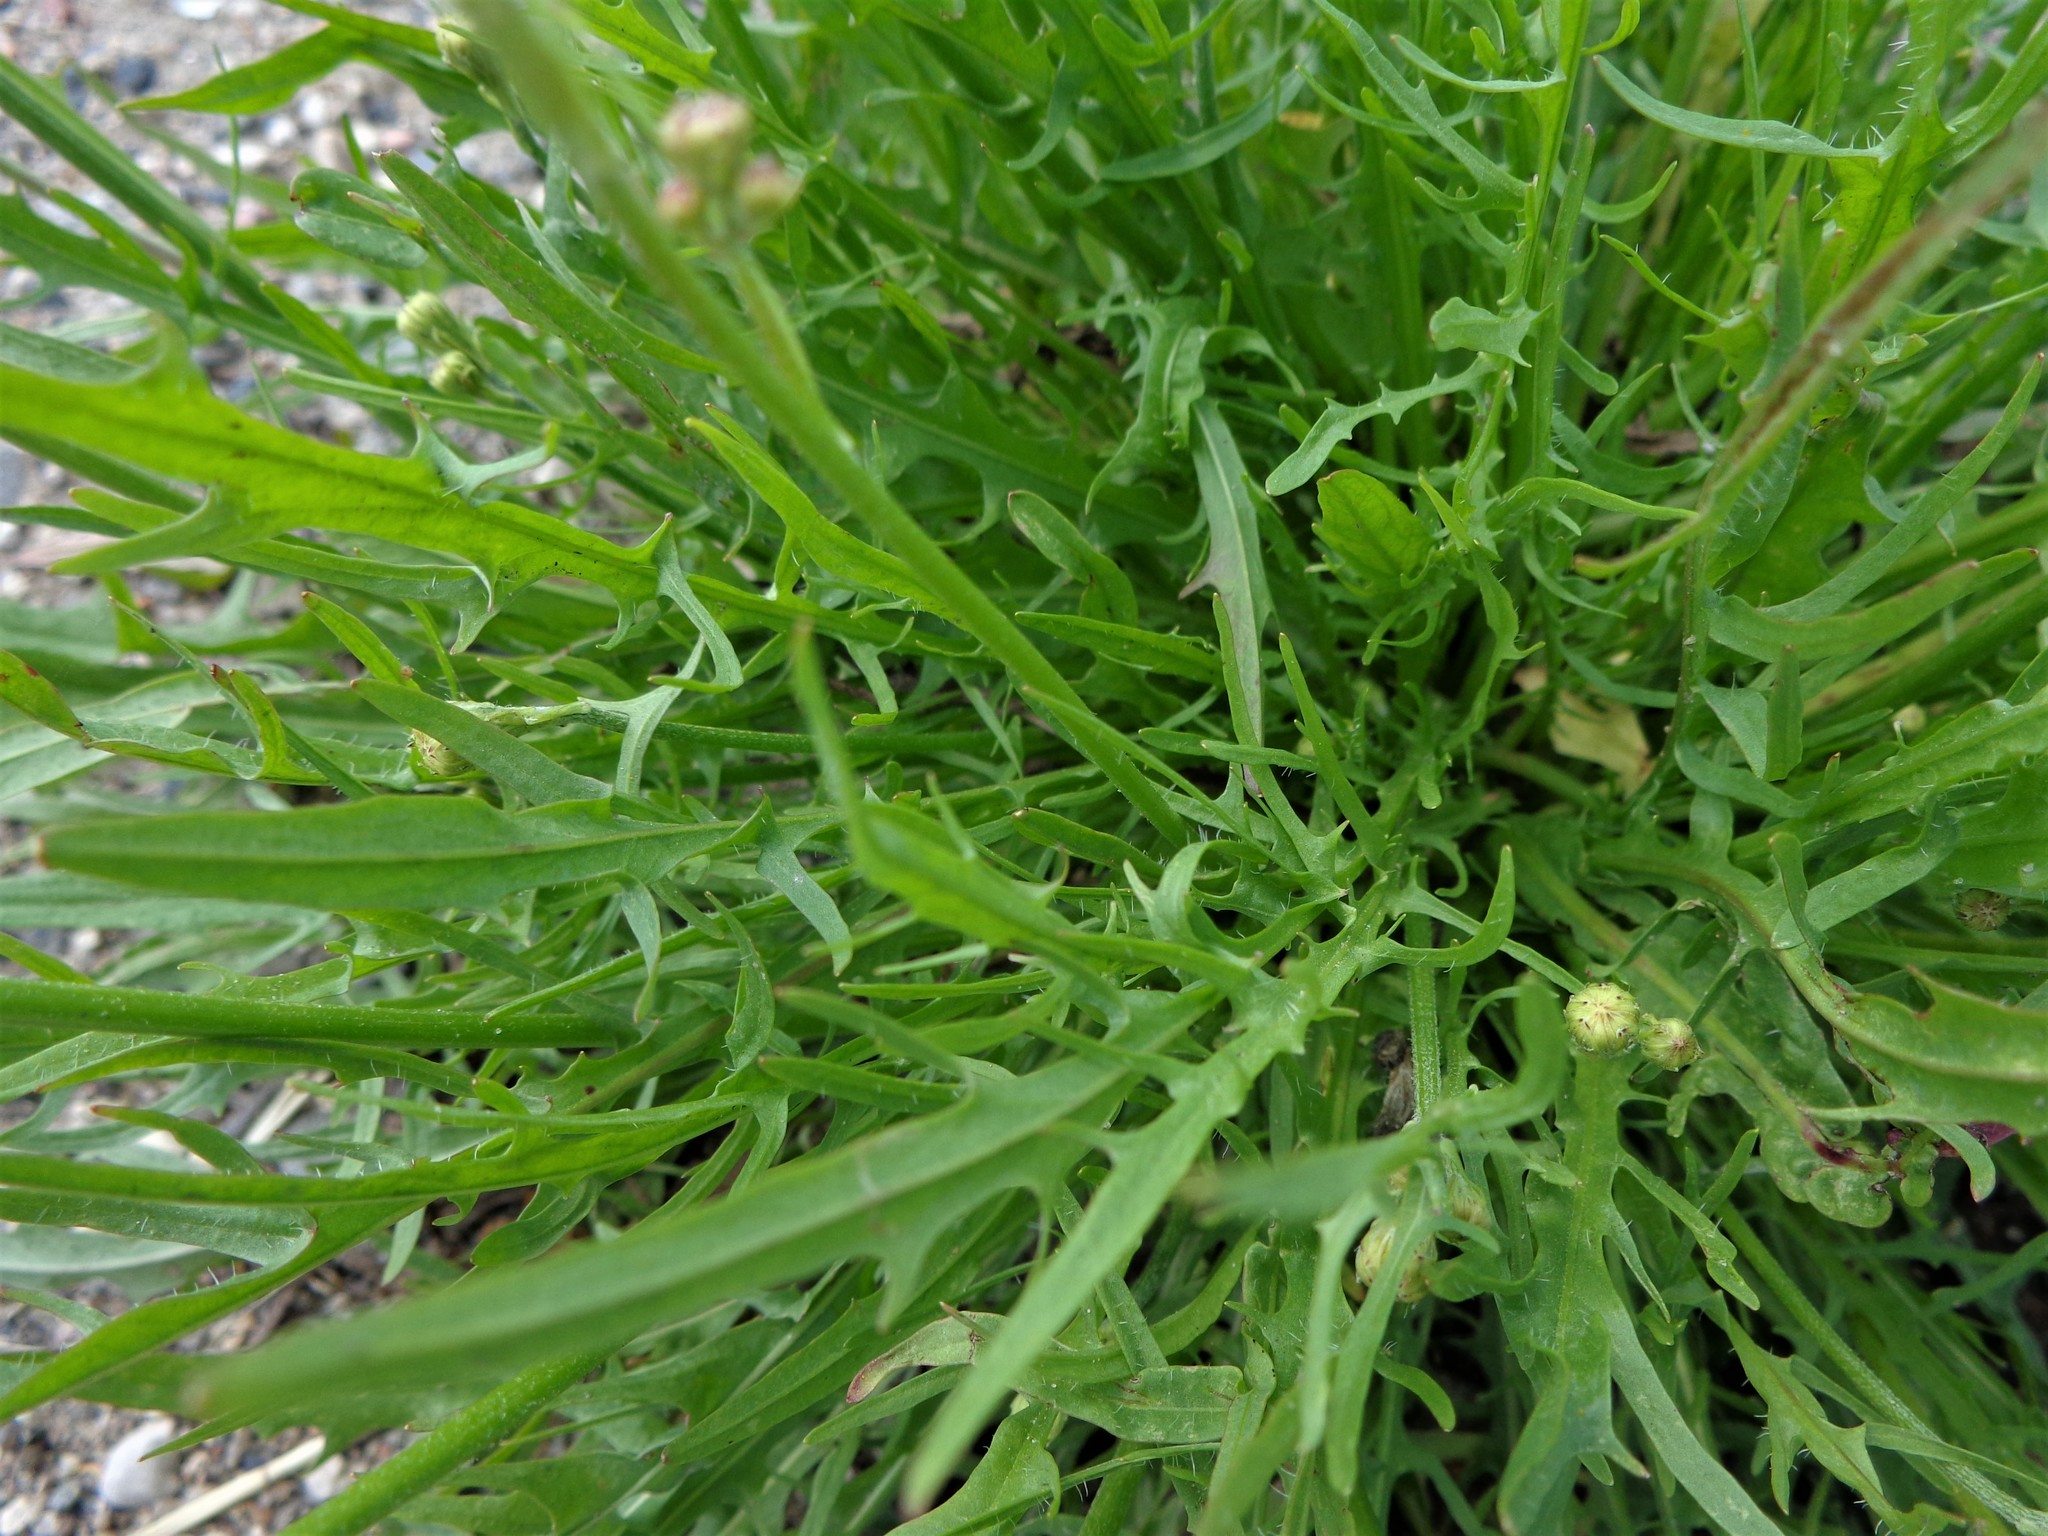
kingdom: Plantae
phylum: Tracheophyta
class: Magnoliopsida
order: Asterales
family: Asteraceae
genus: Scorzoneroides
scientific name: Scorzoneroides autumnalis
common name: Autumn hawkbit
